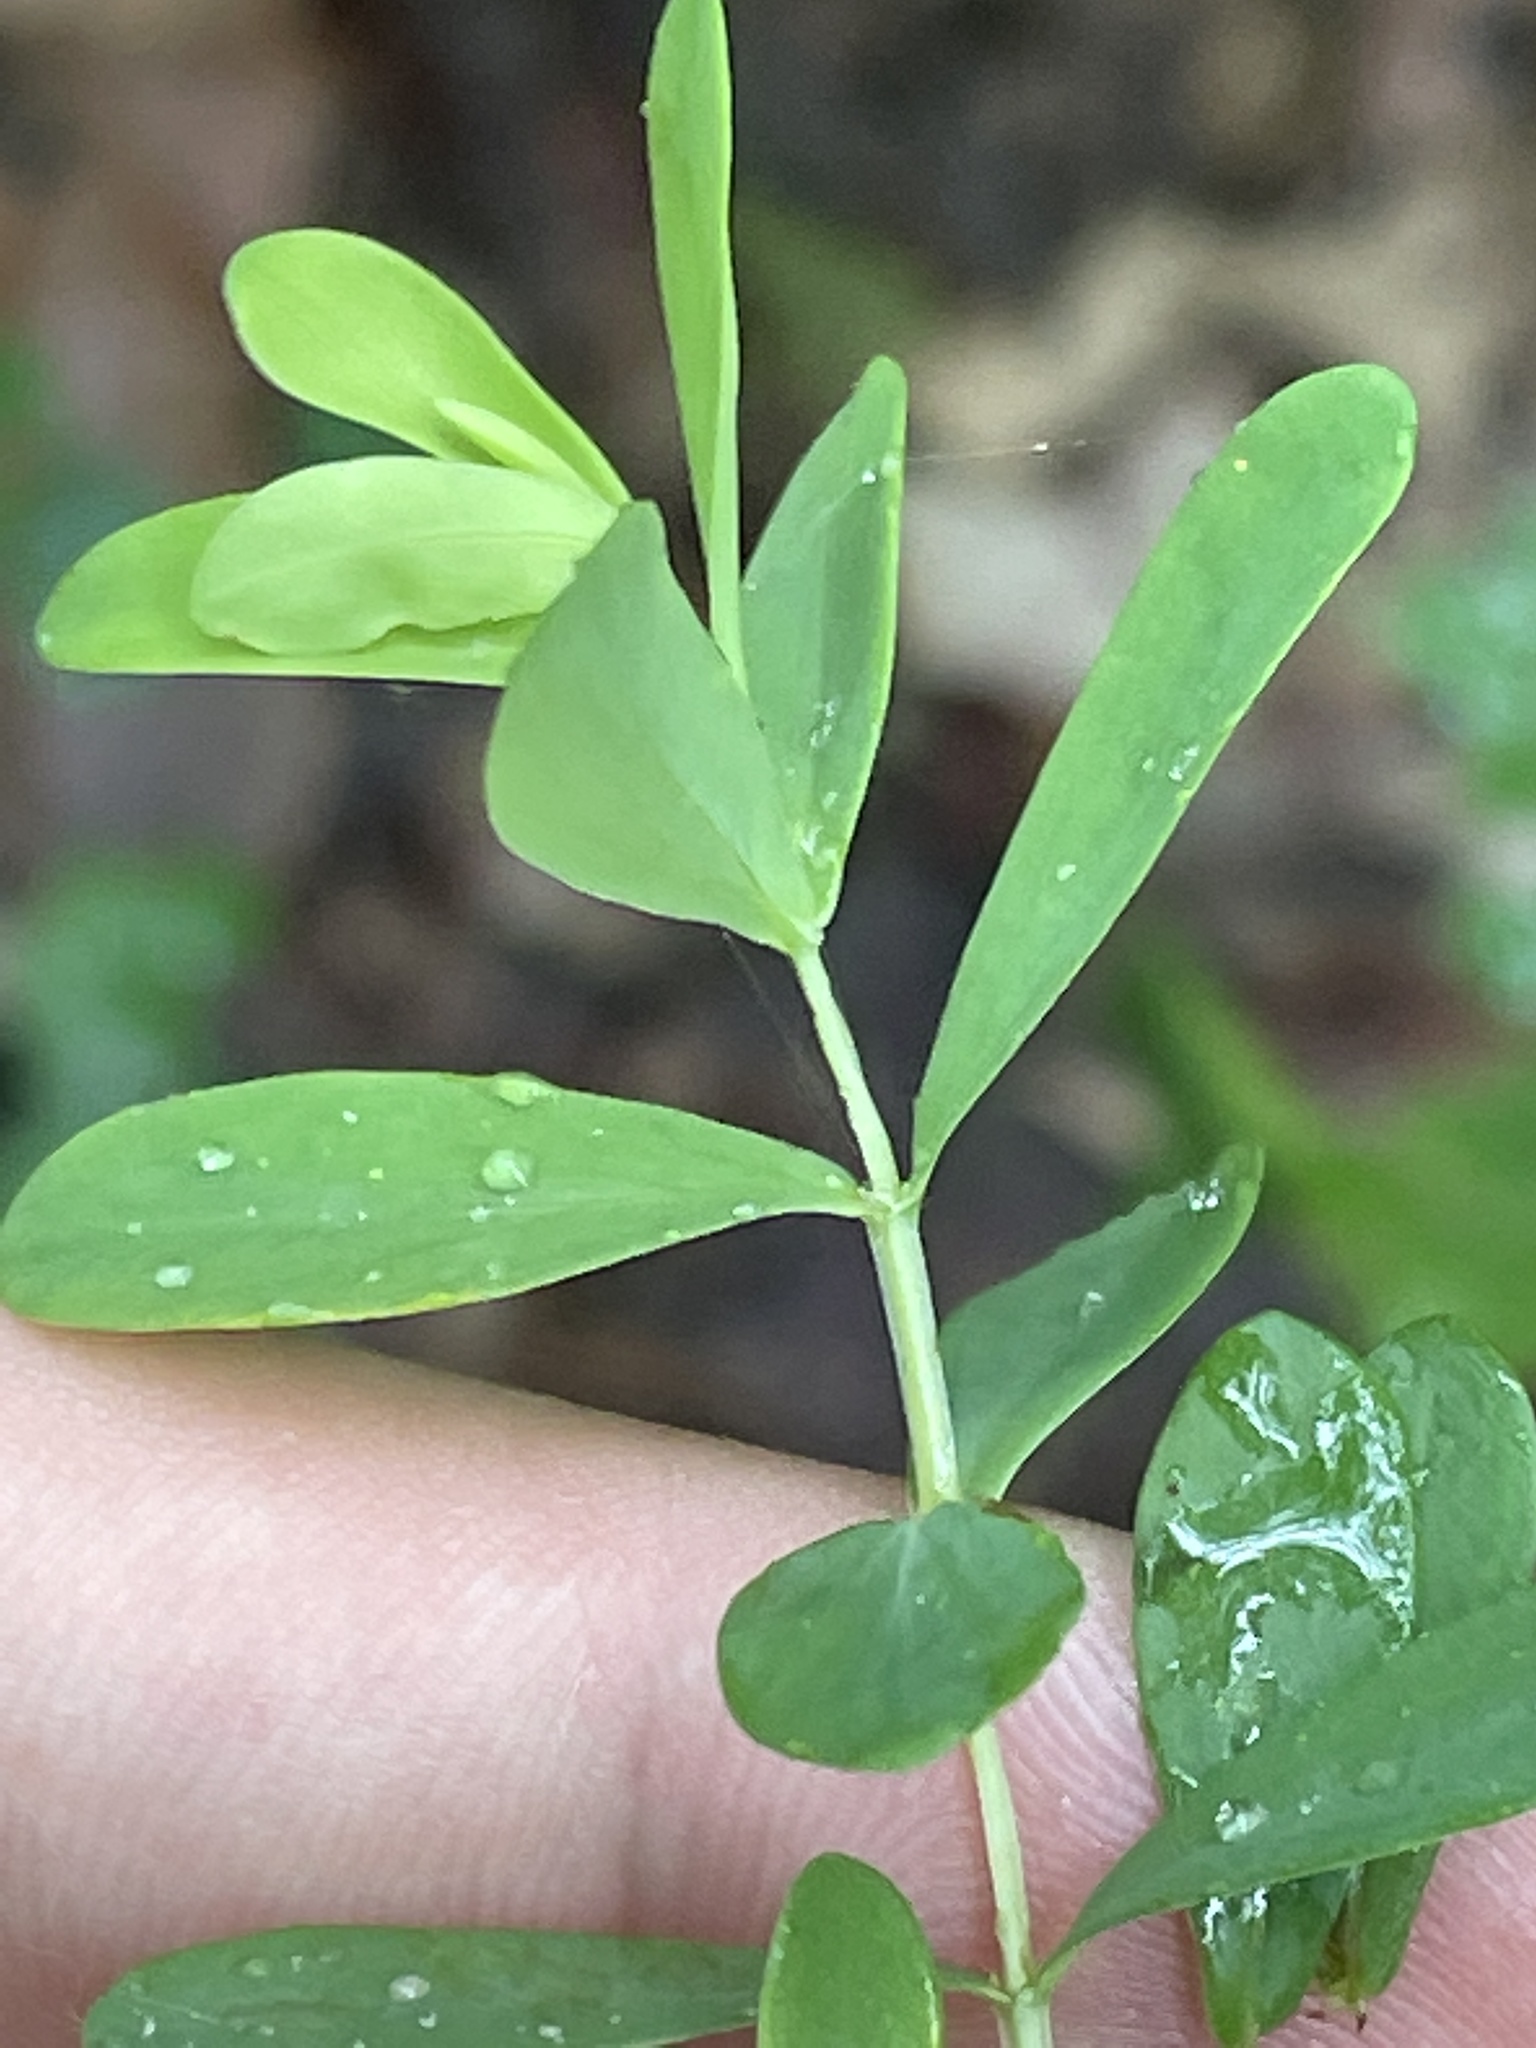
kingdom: Plantae
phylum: Tracheophyta
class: Magnoliopsida
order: Malpighiales
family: Hypericaceae
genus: Hypericum
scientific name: Hypericum hypericoides
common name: St. andrew's cross
